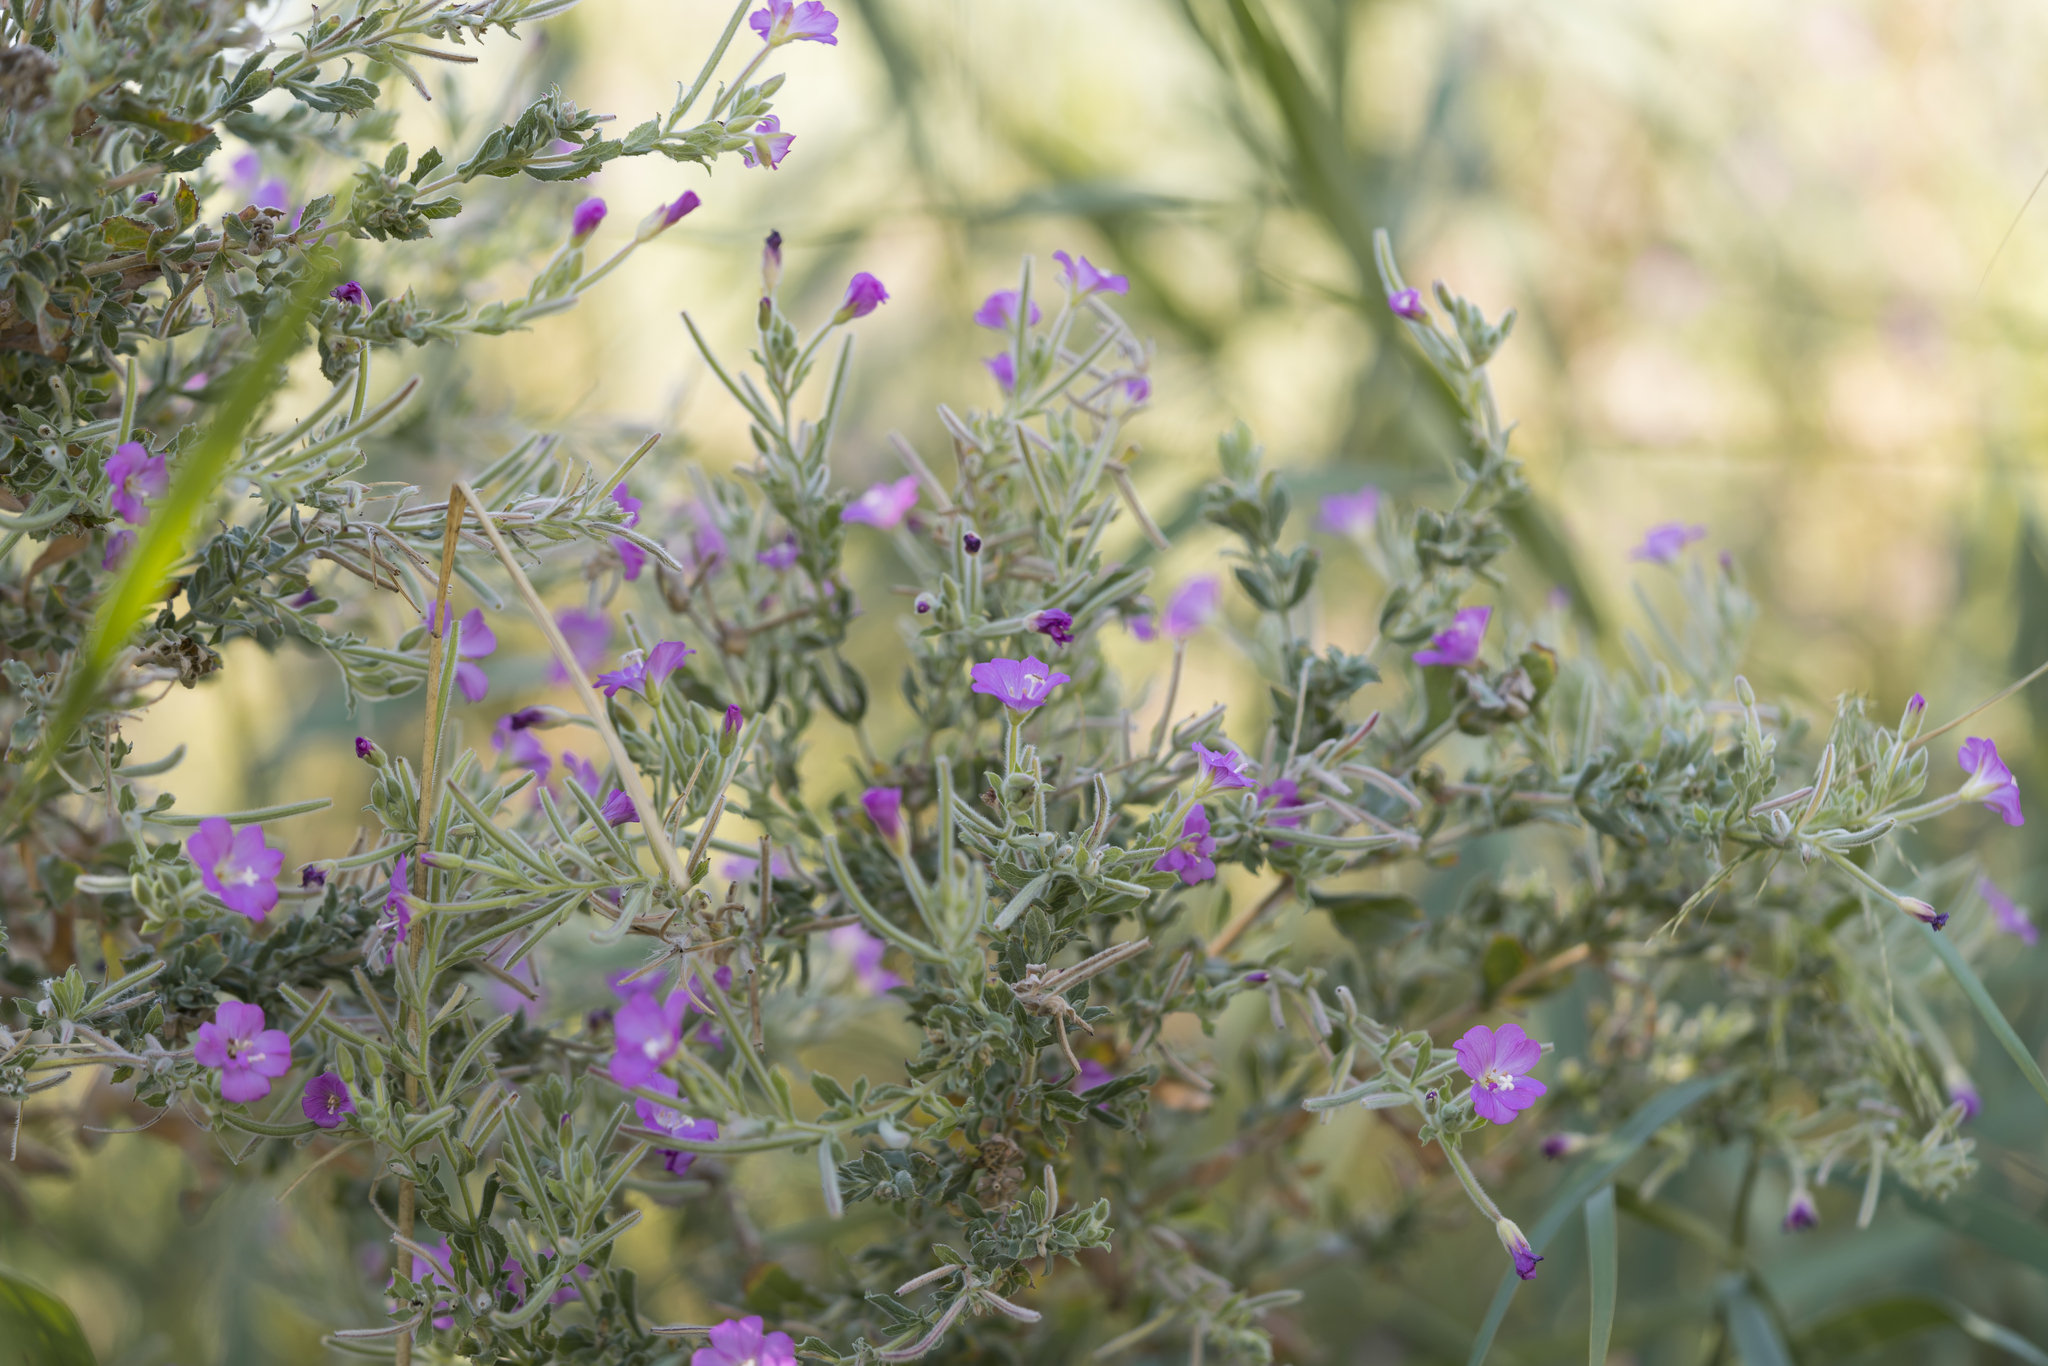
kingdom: Plantae
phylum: Tracheophyta
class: Magnoliopsida
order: Myrtales
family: Onagraceae
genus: Epilobium
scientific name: Epilobium hirsutum
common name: Great willowherb
